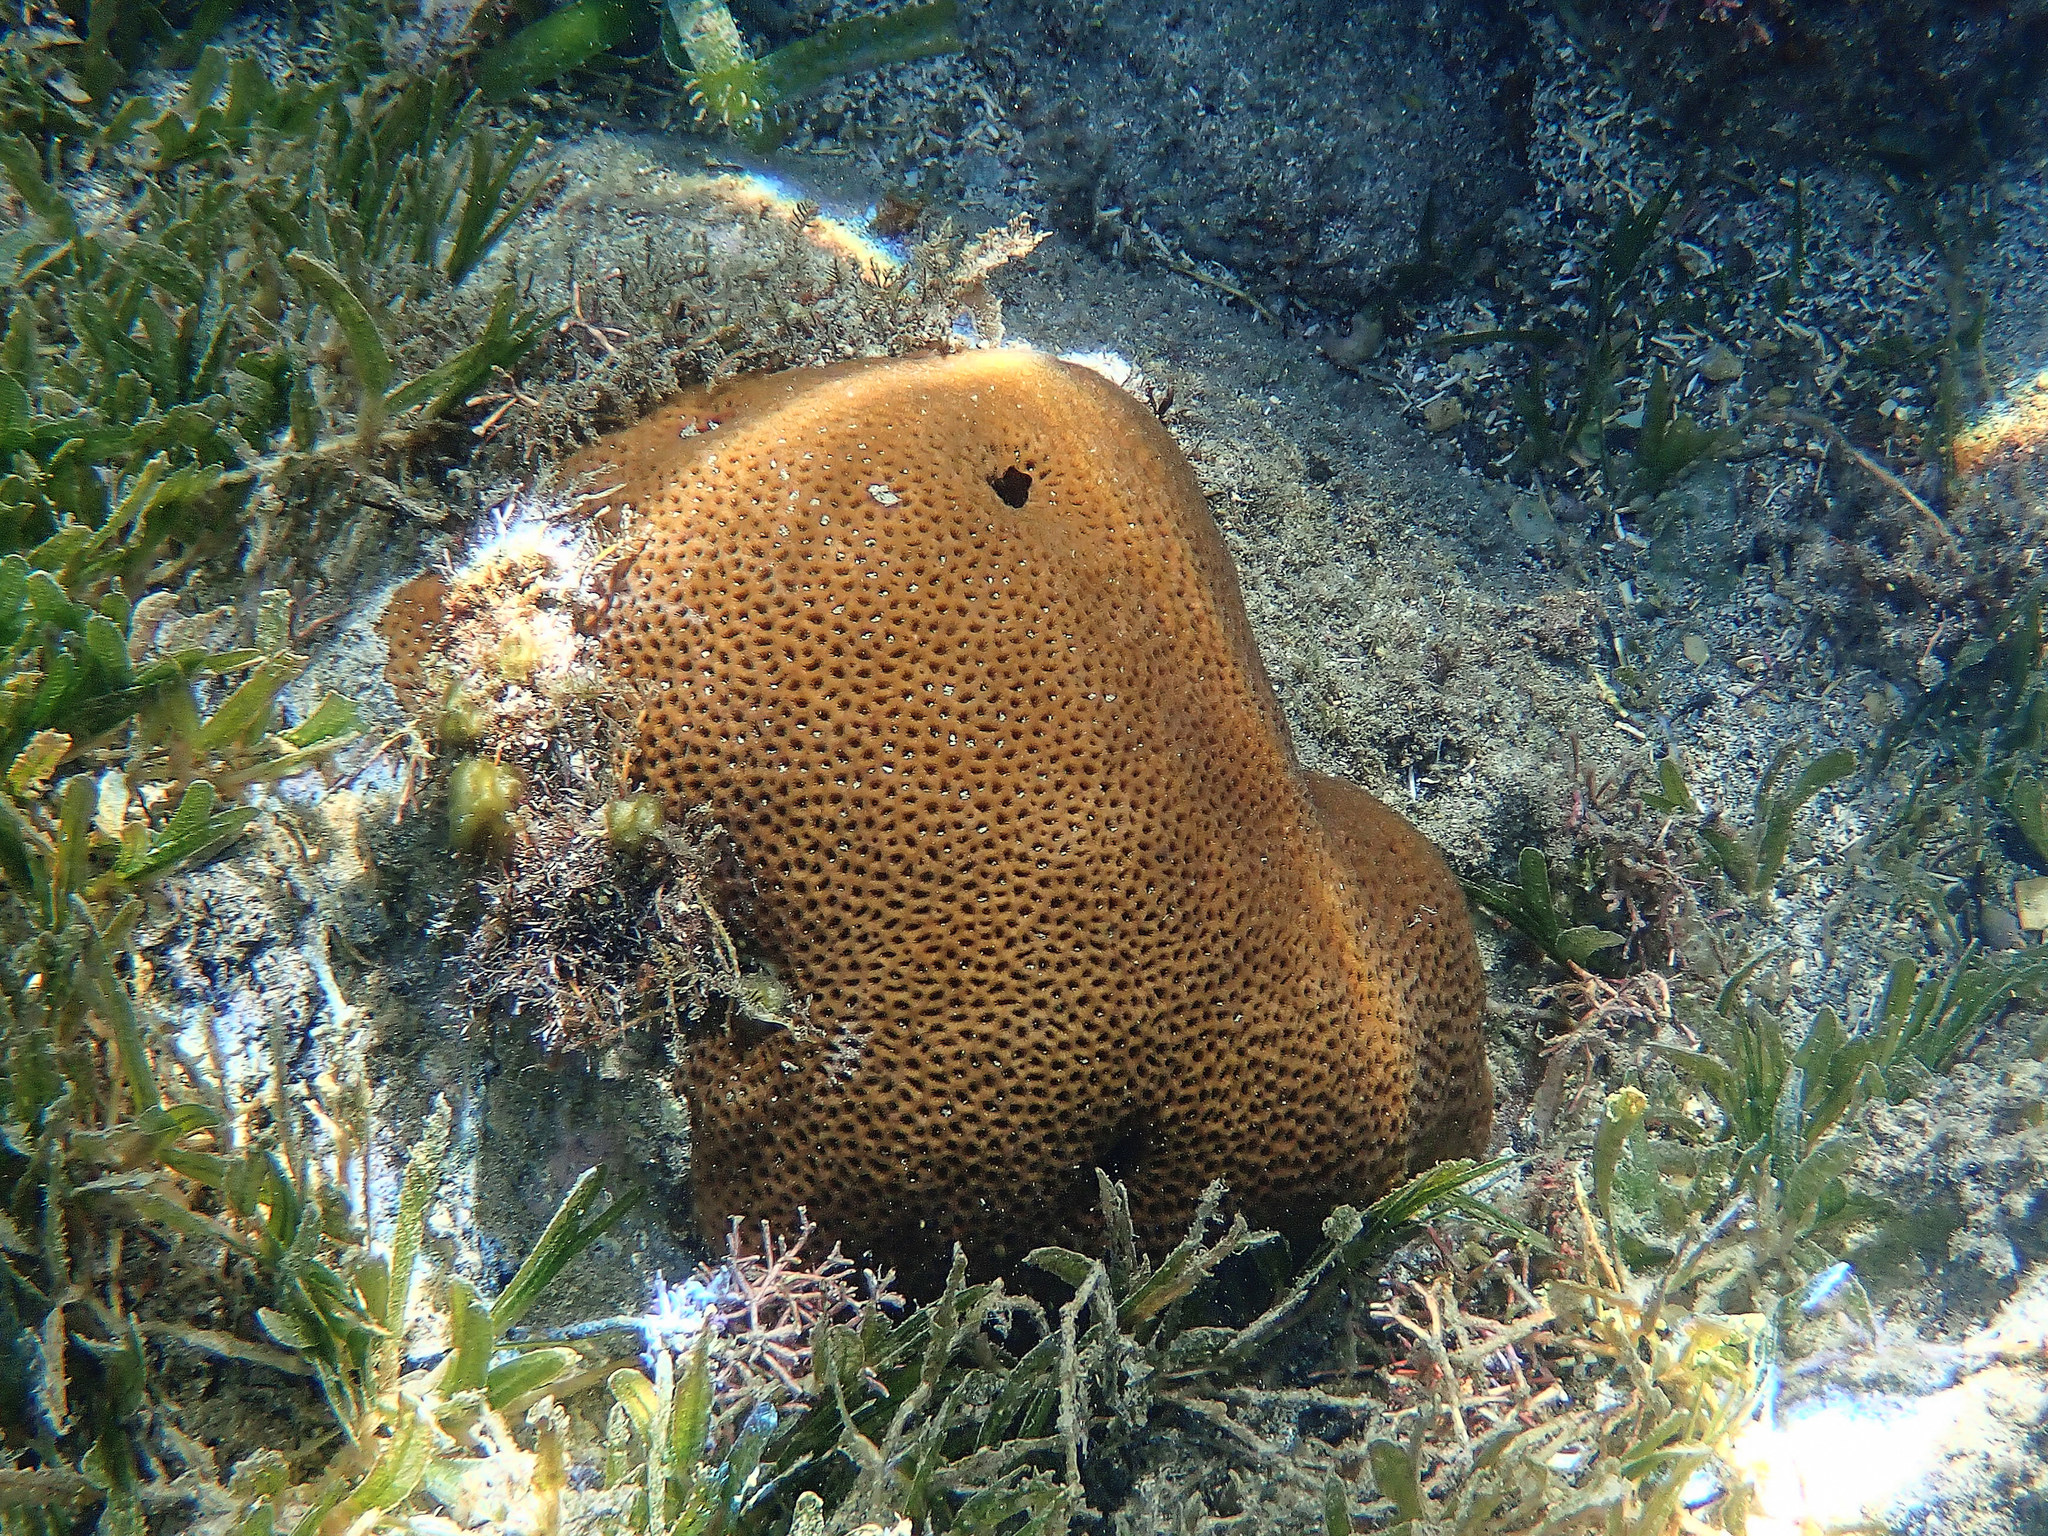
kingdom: Animalia
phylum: Cnidaria
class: Anthozoa
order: Scleractinia
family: Rhizangiidae
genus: Siderastrea
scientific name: Siderastrea siderea
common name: Massive starlet coral
